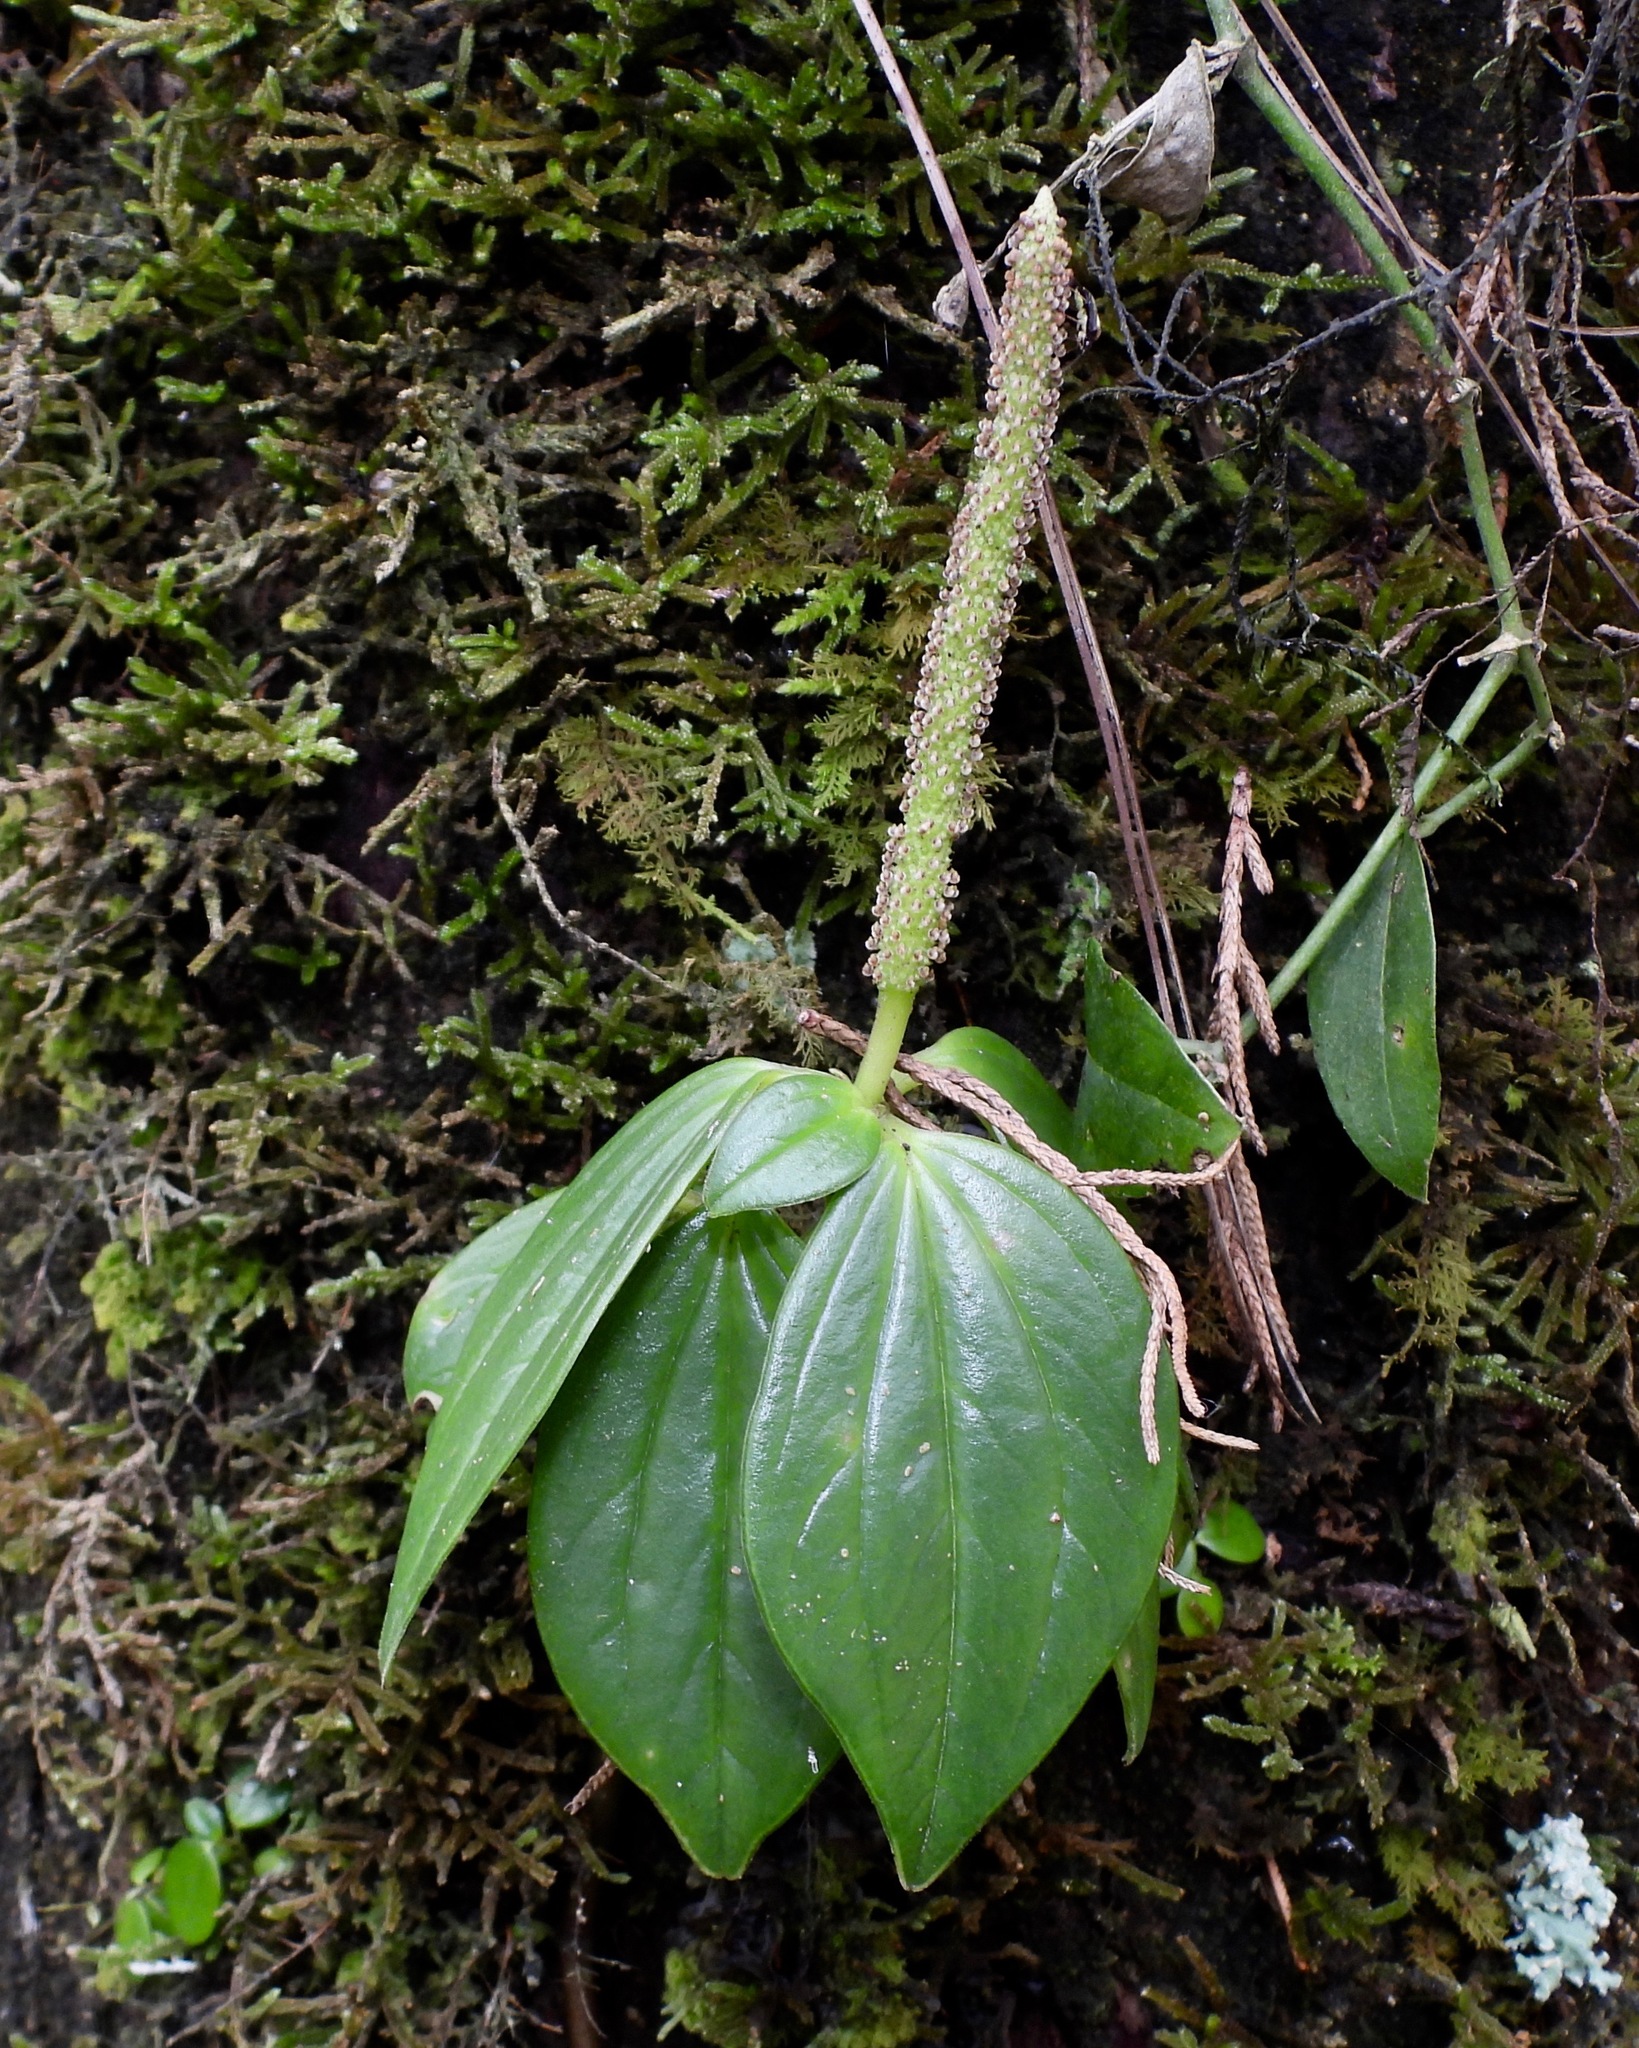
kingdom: Plantae
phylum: Tracheophyta
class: Magnoliopsida
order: Piperales
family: Piperaceae
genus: Peperomia
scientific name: Peperomia san-joseana
